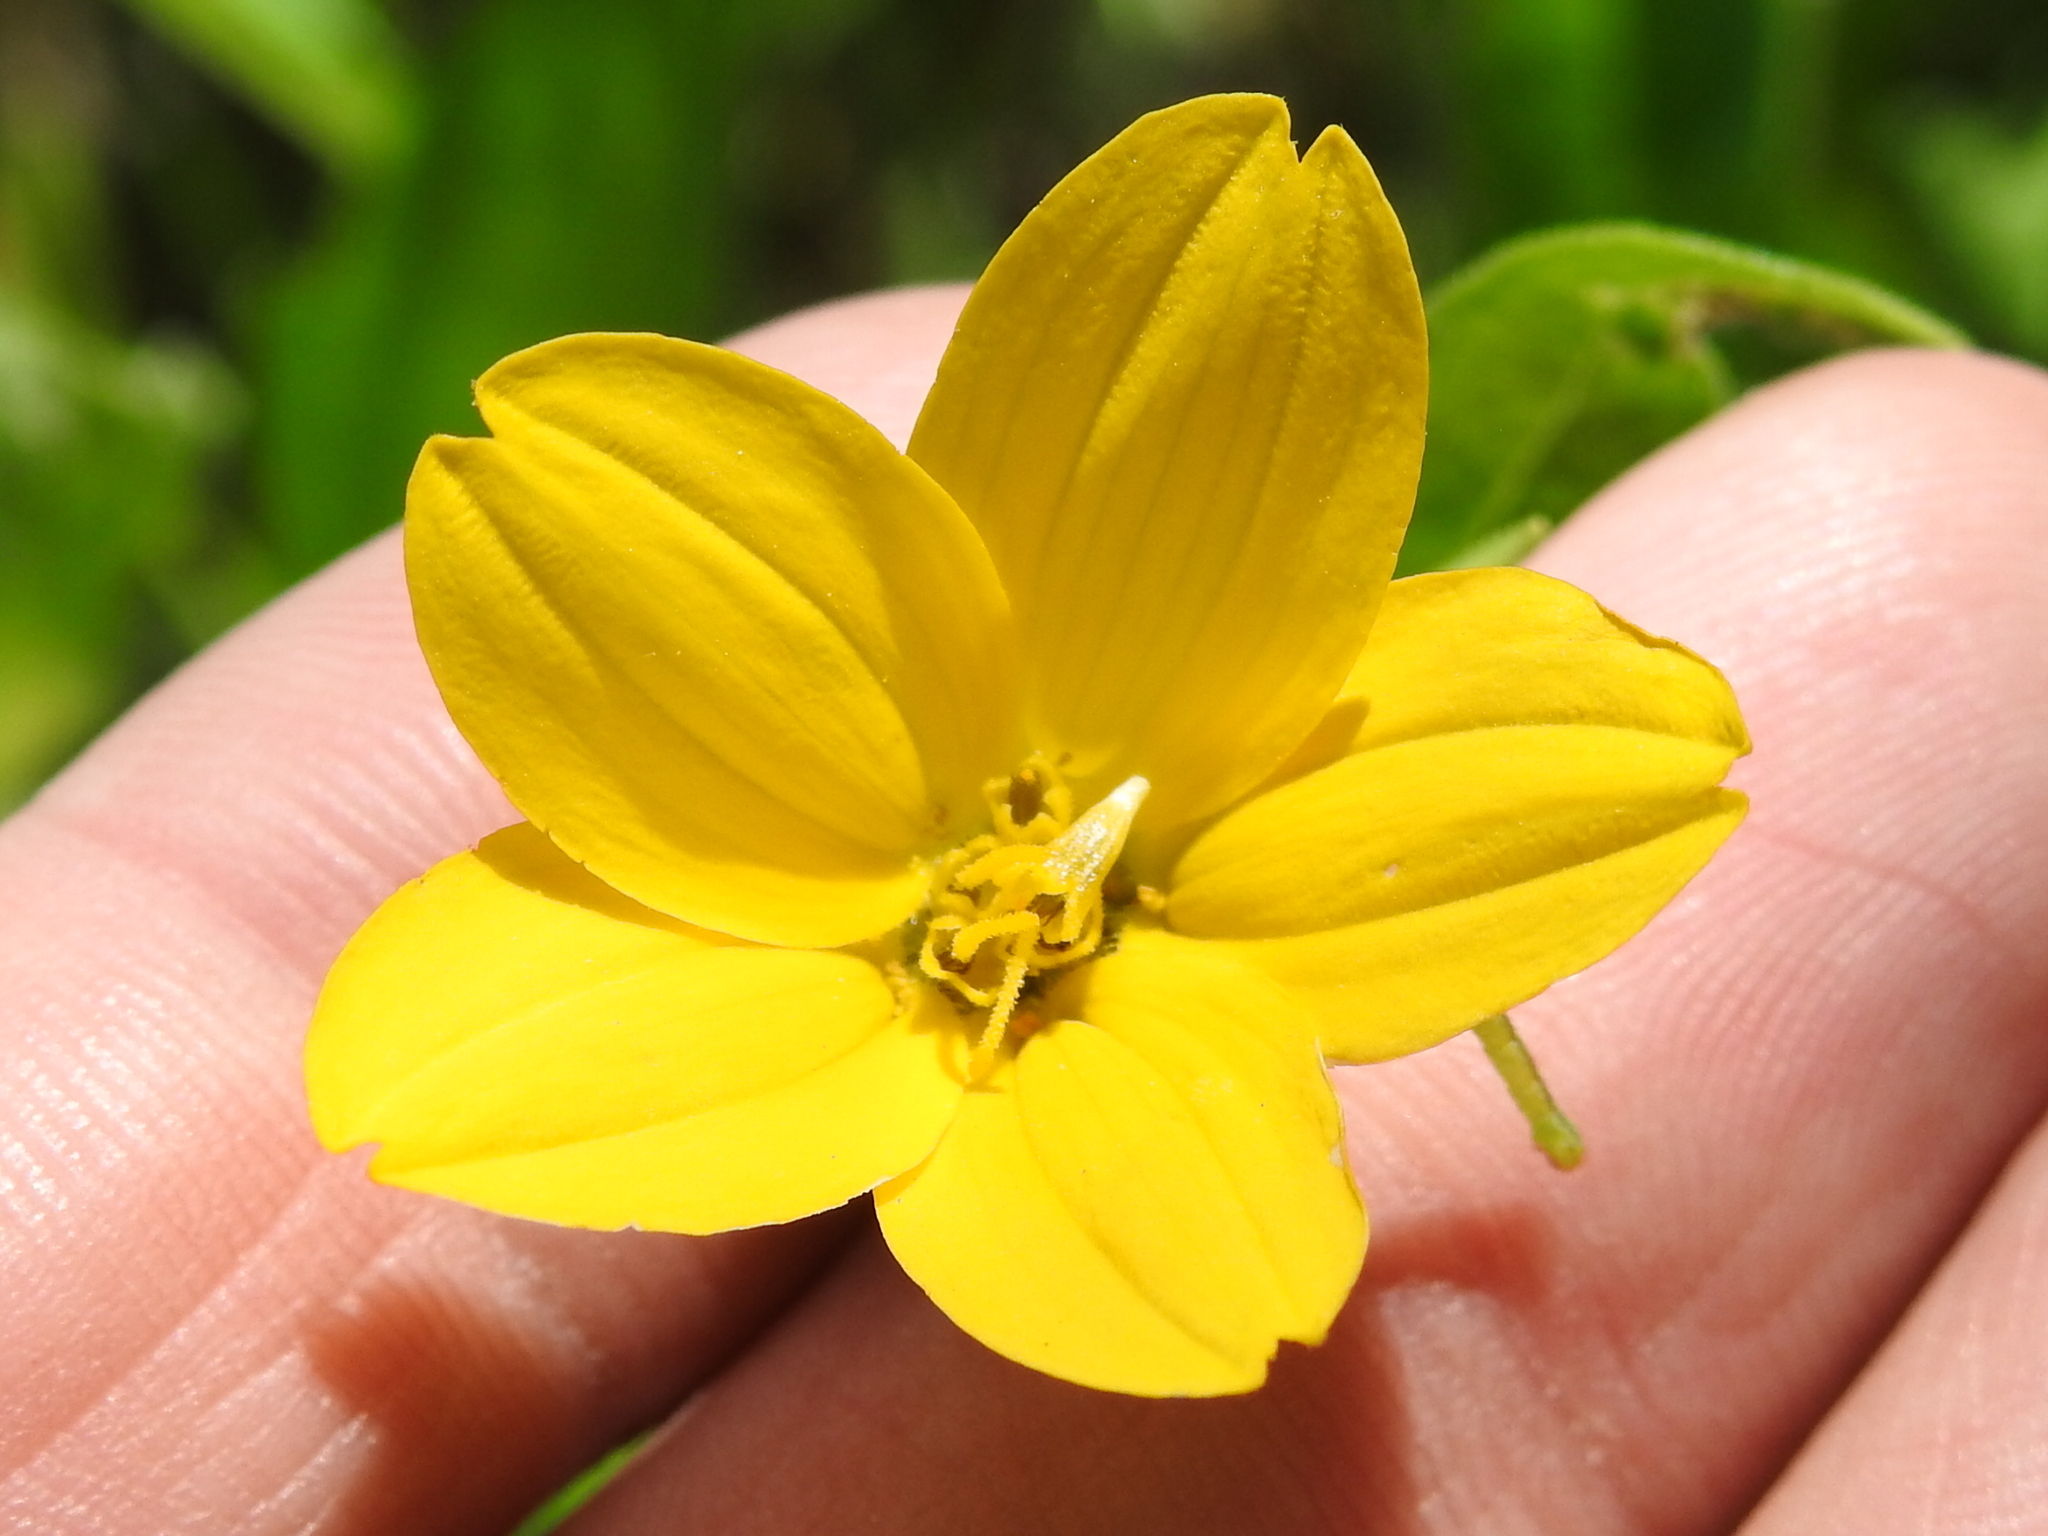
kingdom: Plantae
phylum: Tracheophyta
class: Magnoliopsida
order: Asterales
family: Asteraceae
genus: Lindheimera
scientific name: Lindheimera texana
